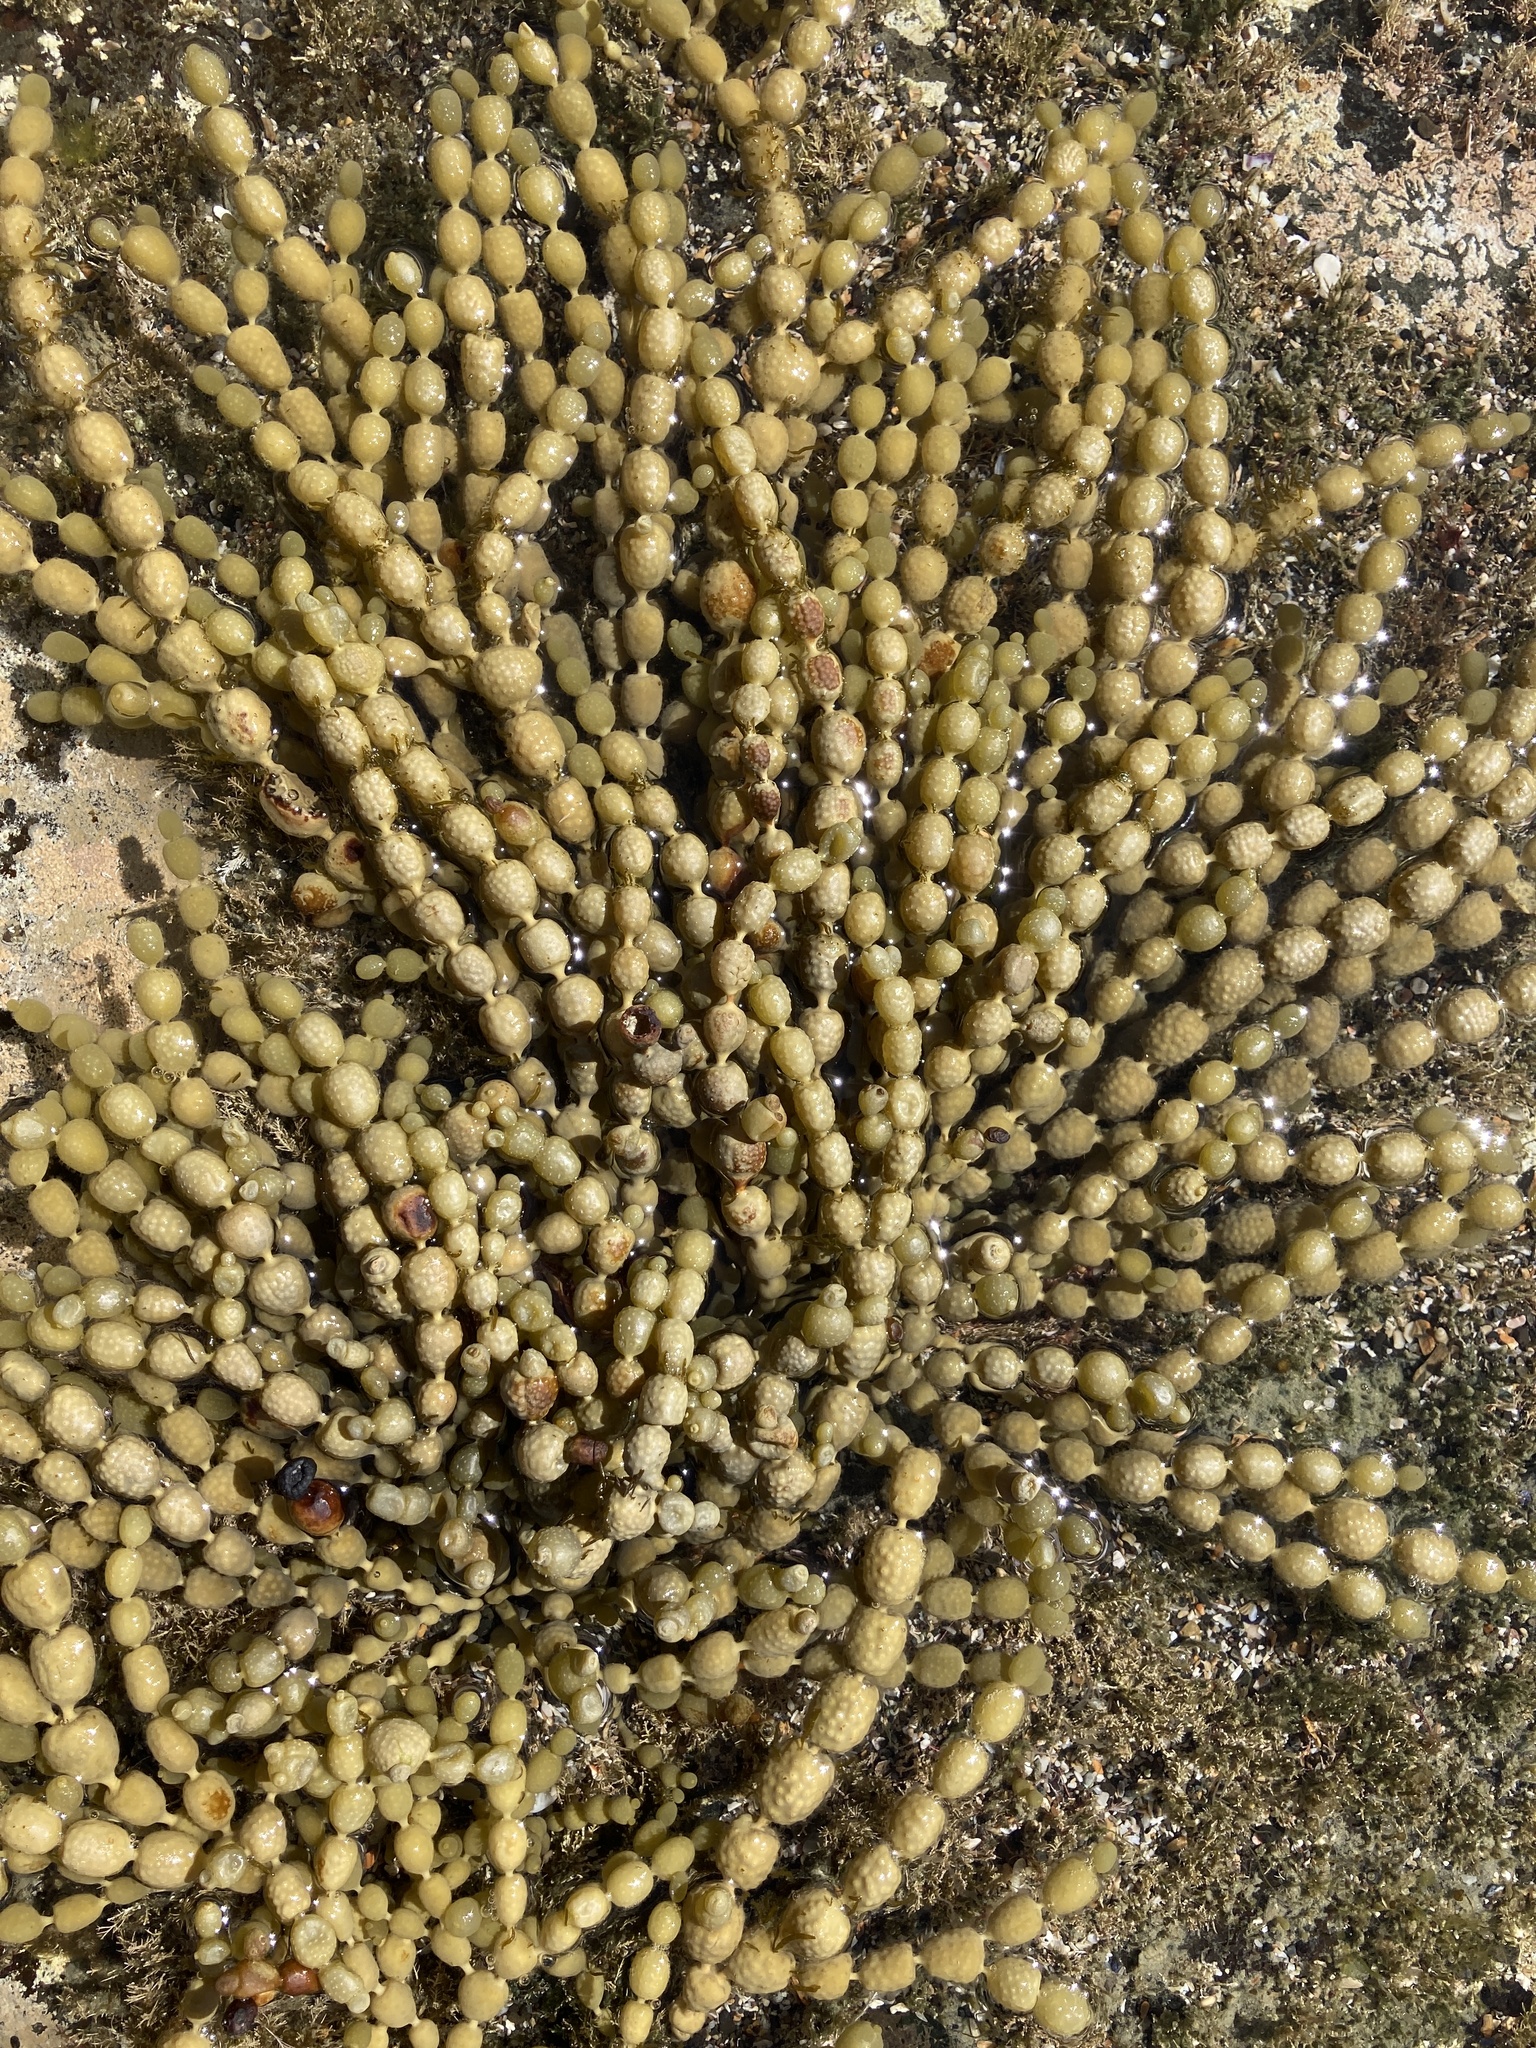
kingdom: Chromista
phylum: Ochrophyta
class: Phaeophyceae
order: Fucales
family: Hormosiraceae
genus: Hormosira
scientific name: Hormosira banksii
